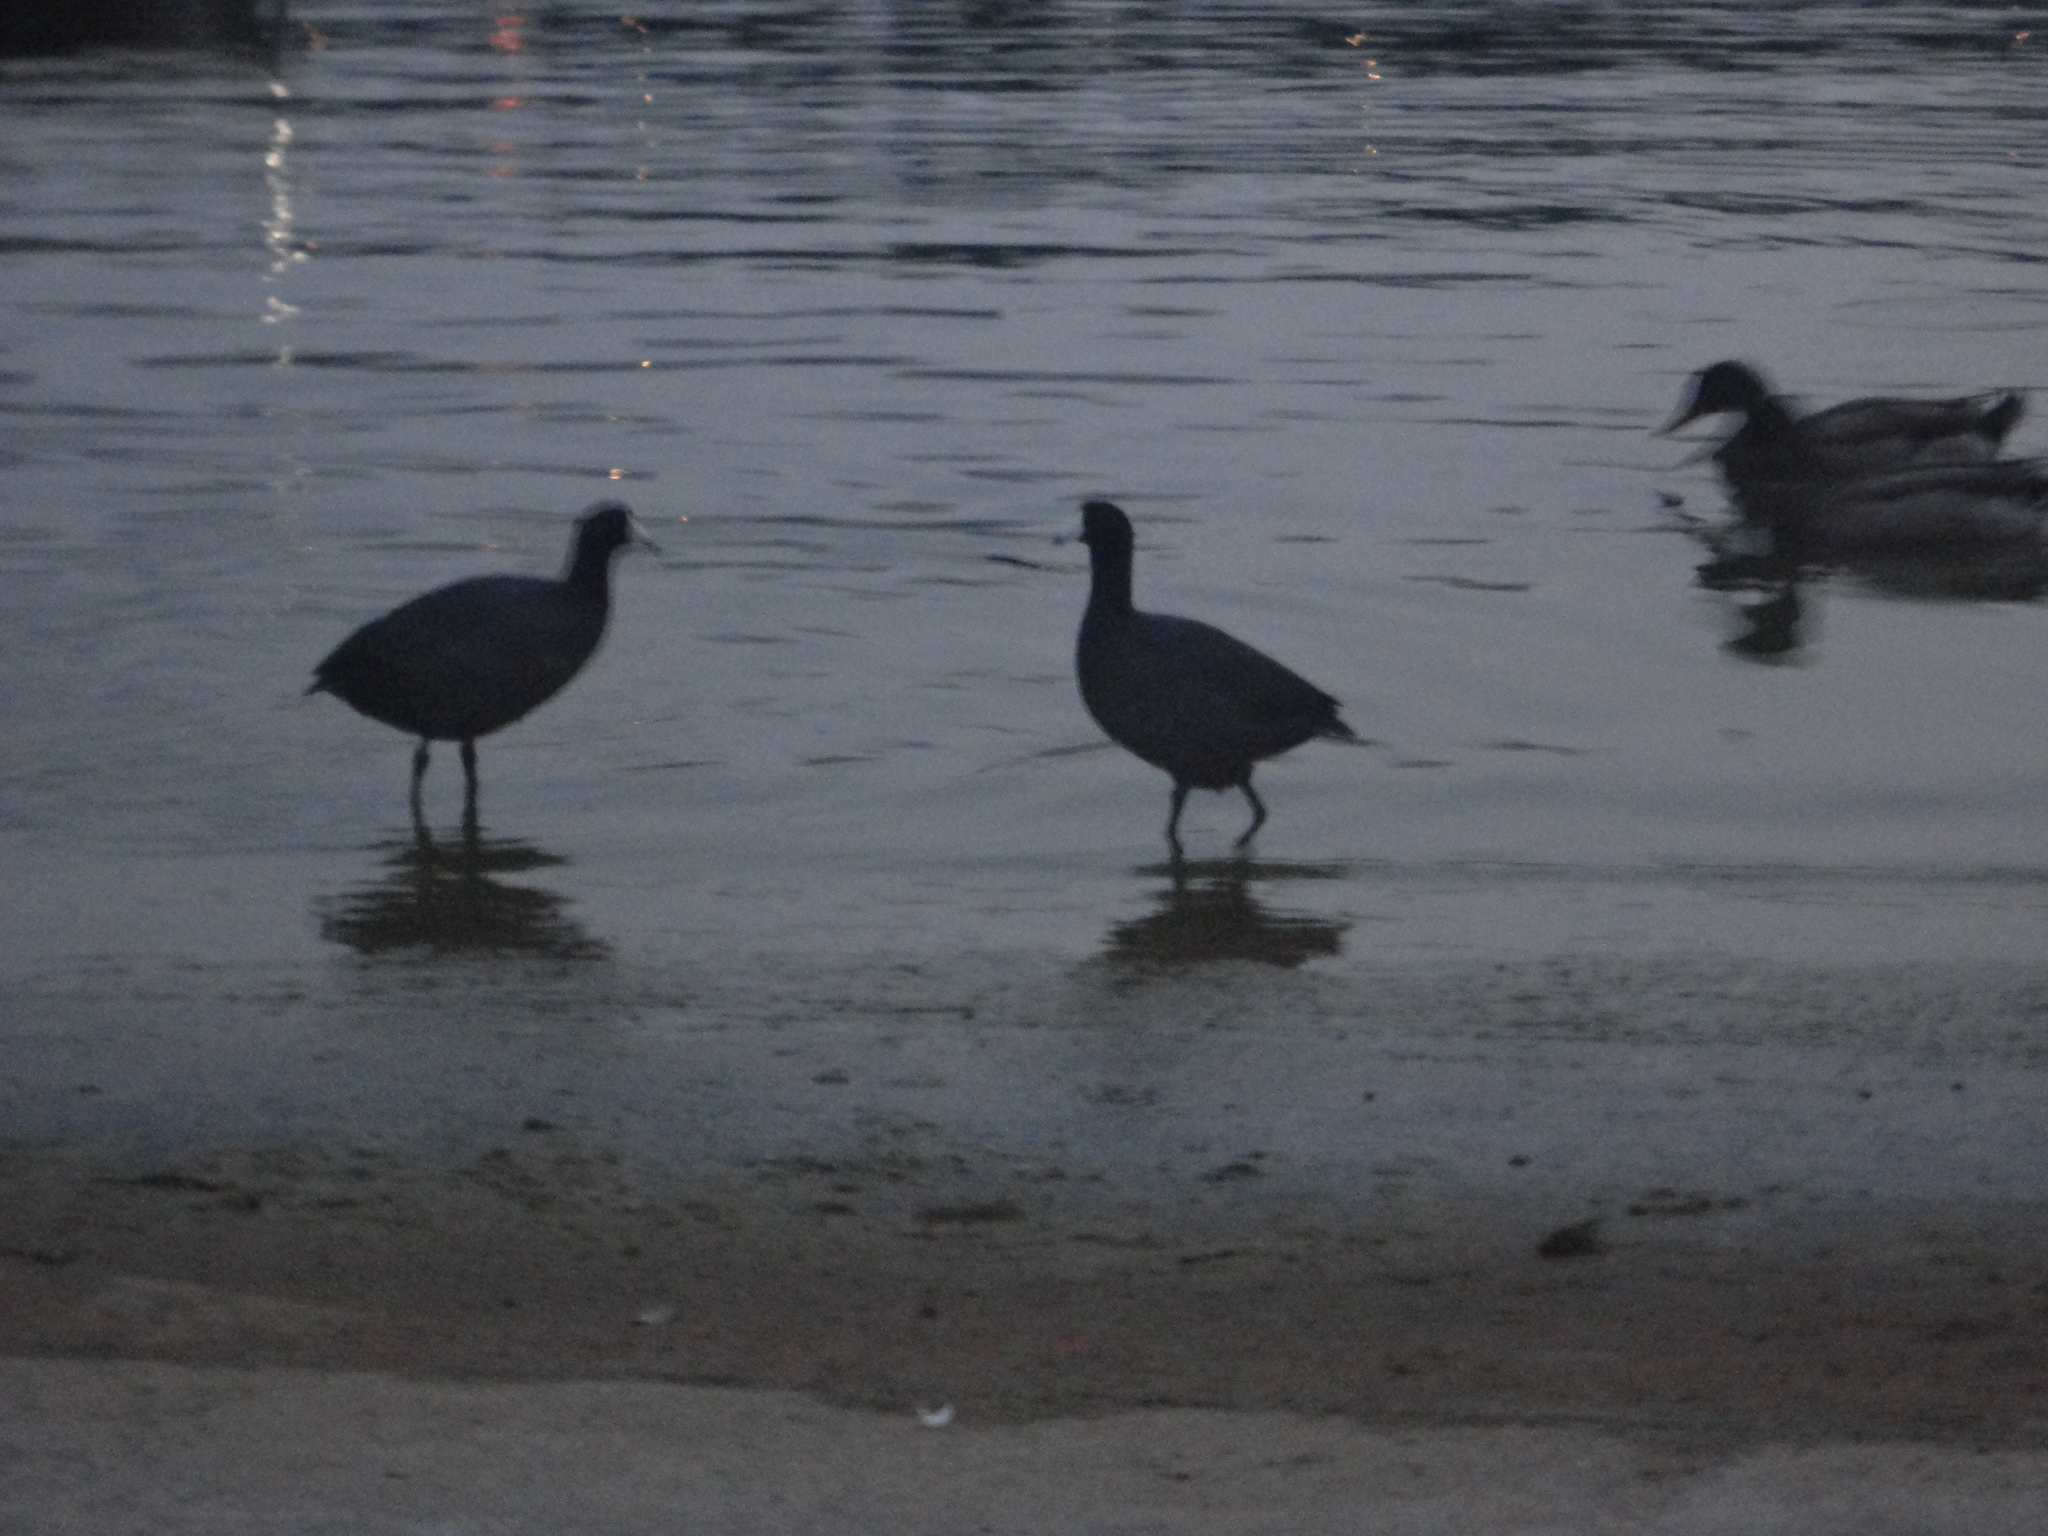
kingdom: Animalia
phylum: Chordata
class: Aves
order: Gruiformes
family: Rallidae
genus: Fulica
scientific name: Fulica americana
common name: American coot
